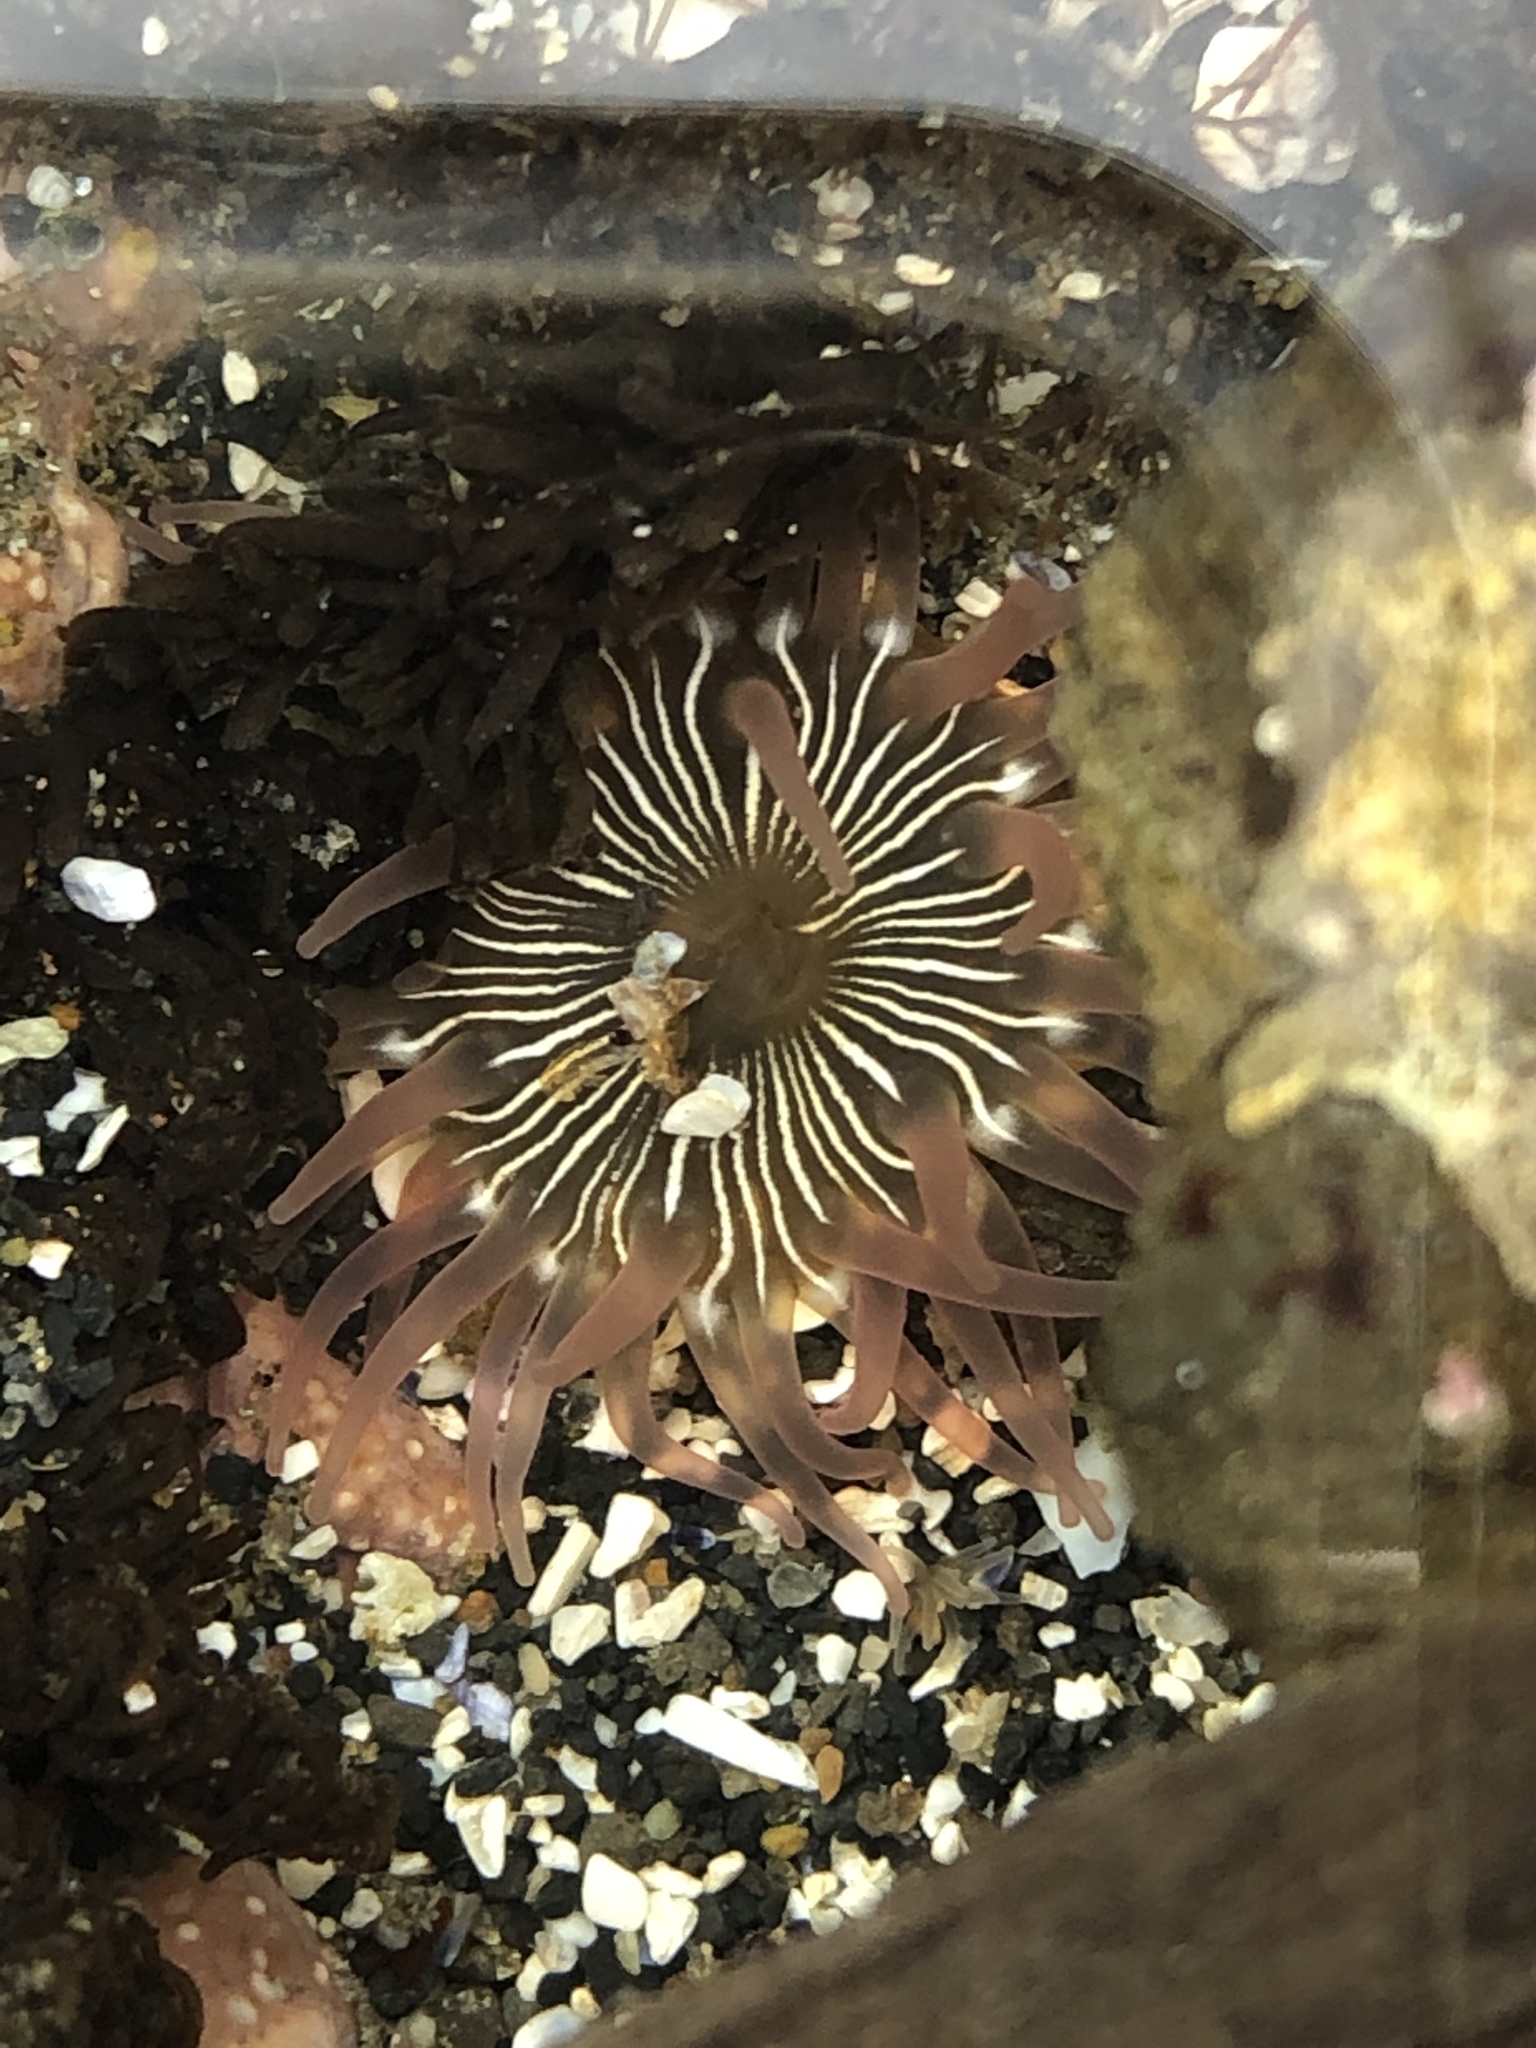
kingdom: Animalia
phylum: Cnidaria
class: Anthozoa
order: Actiniaria
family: Actiniidae
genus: Aulactinia
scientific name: Aulactinia incubans
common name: Incubating anemone
